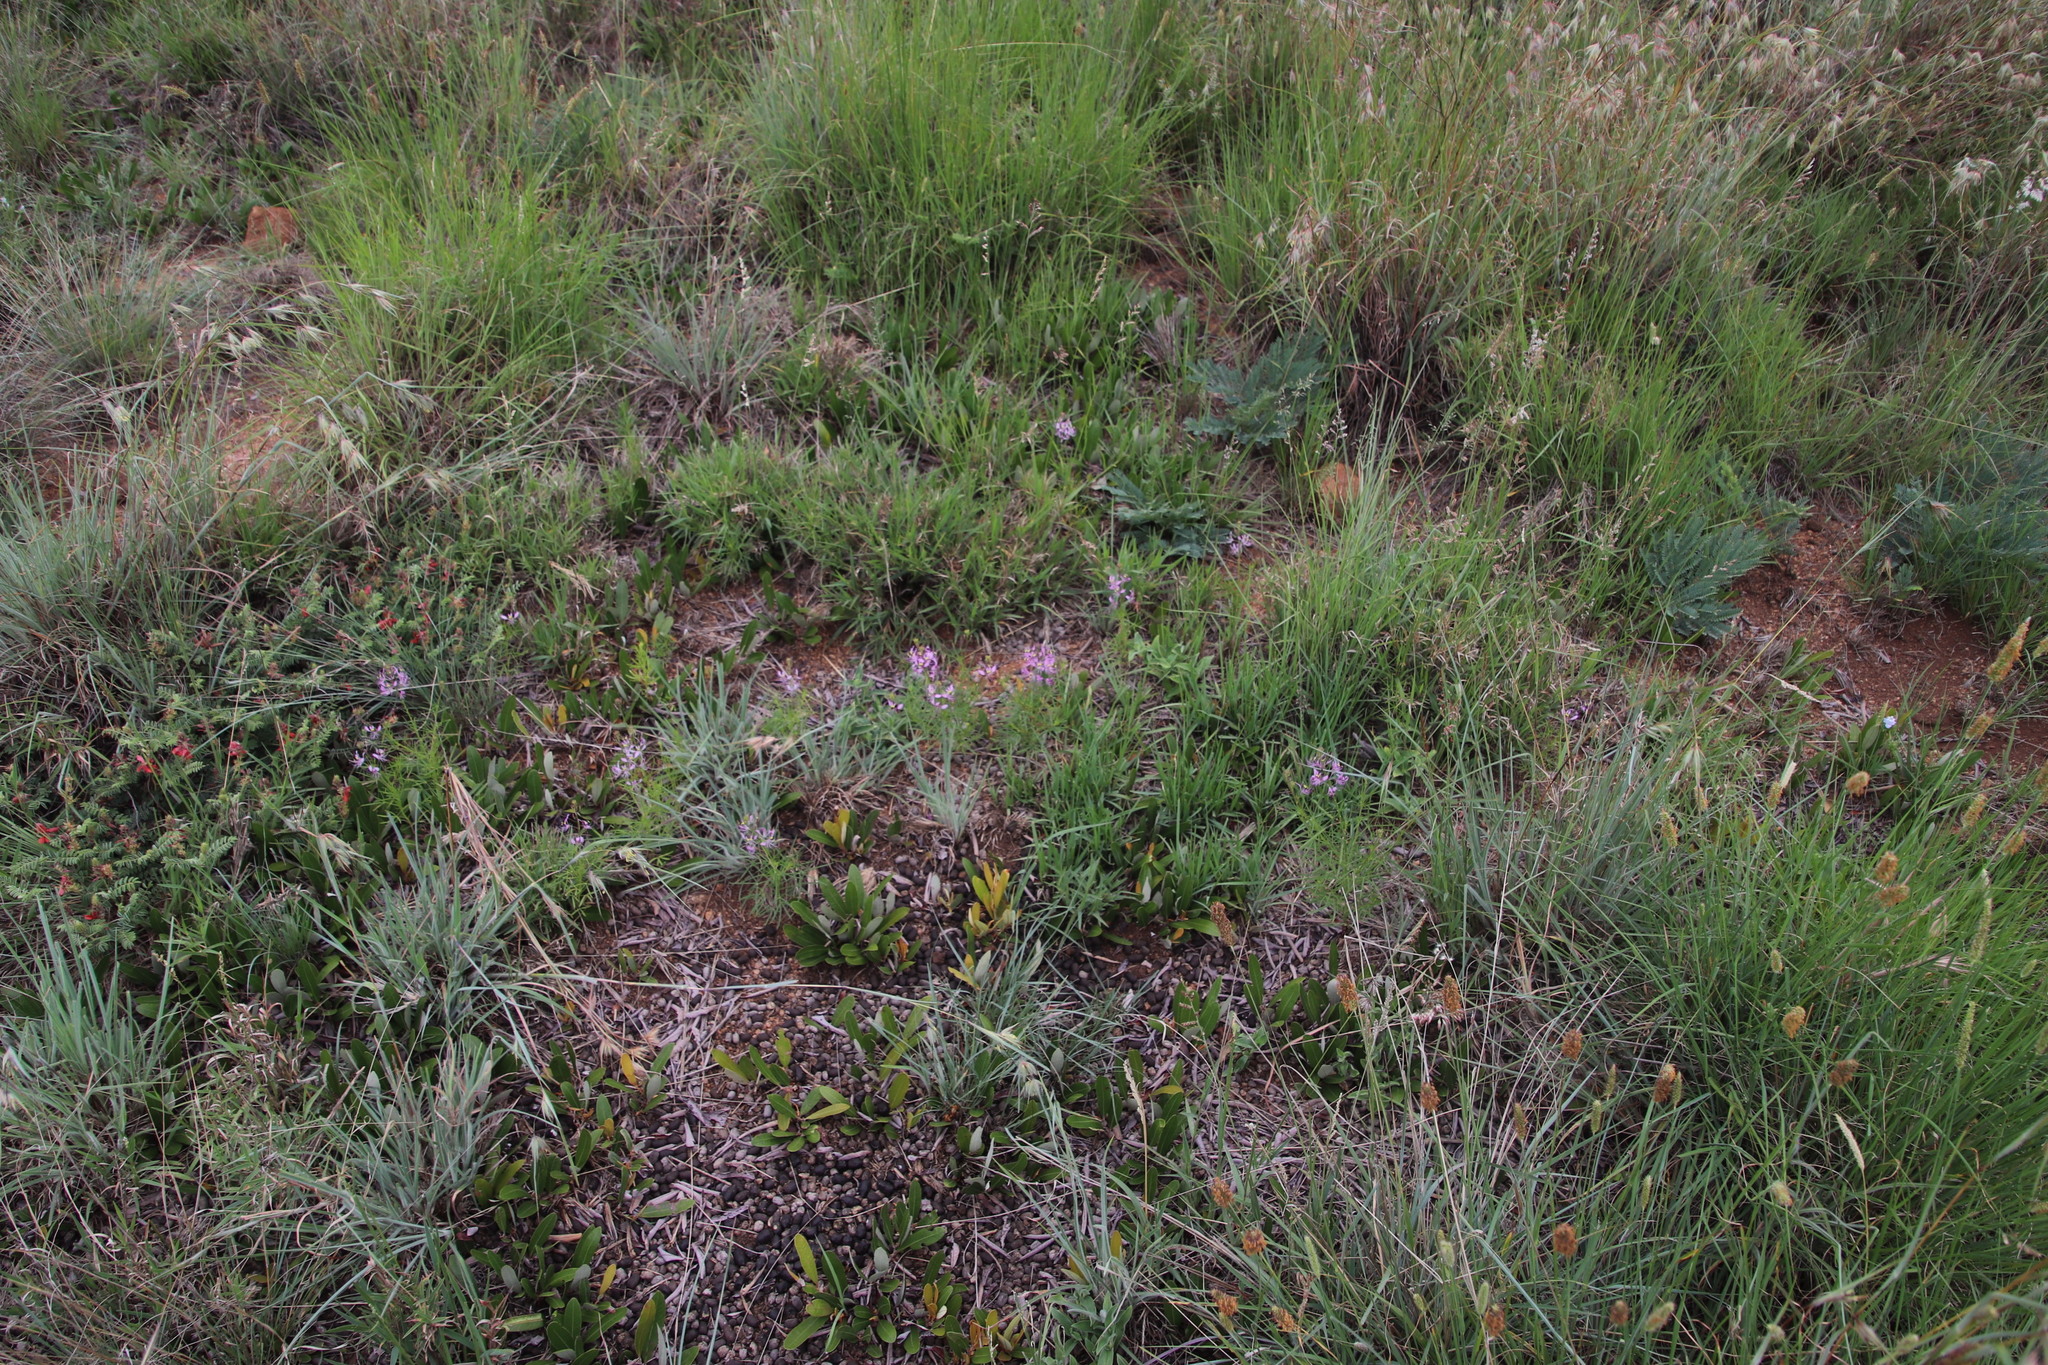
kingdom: Plantae
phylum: Tracheophyta
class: Magnoliopsida
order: Brassicales
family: Cleomaceae
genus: Sieruela
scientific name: Sieruela maculata
